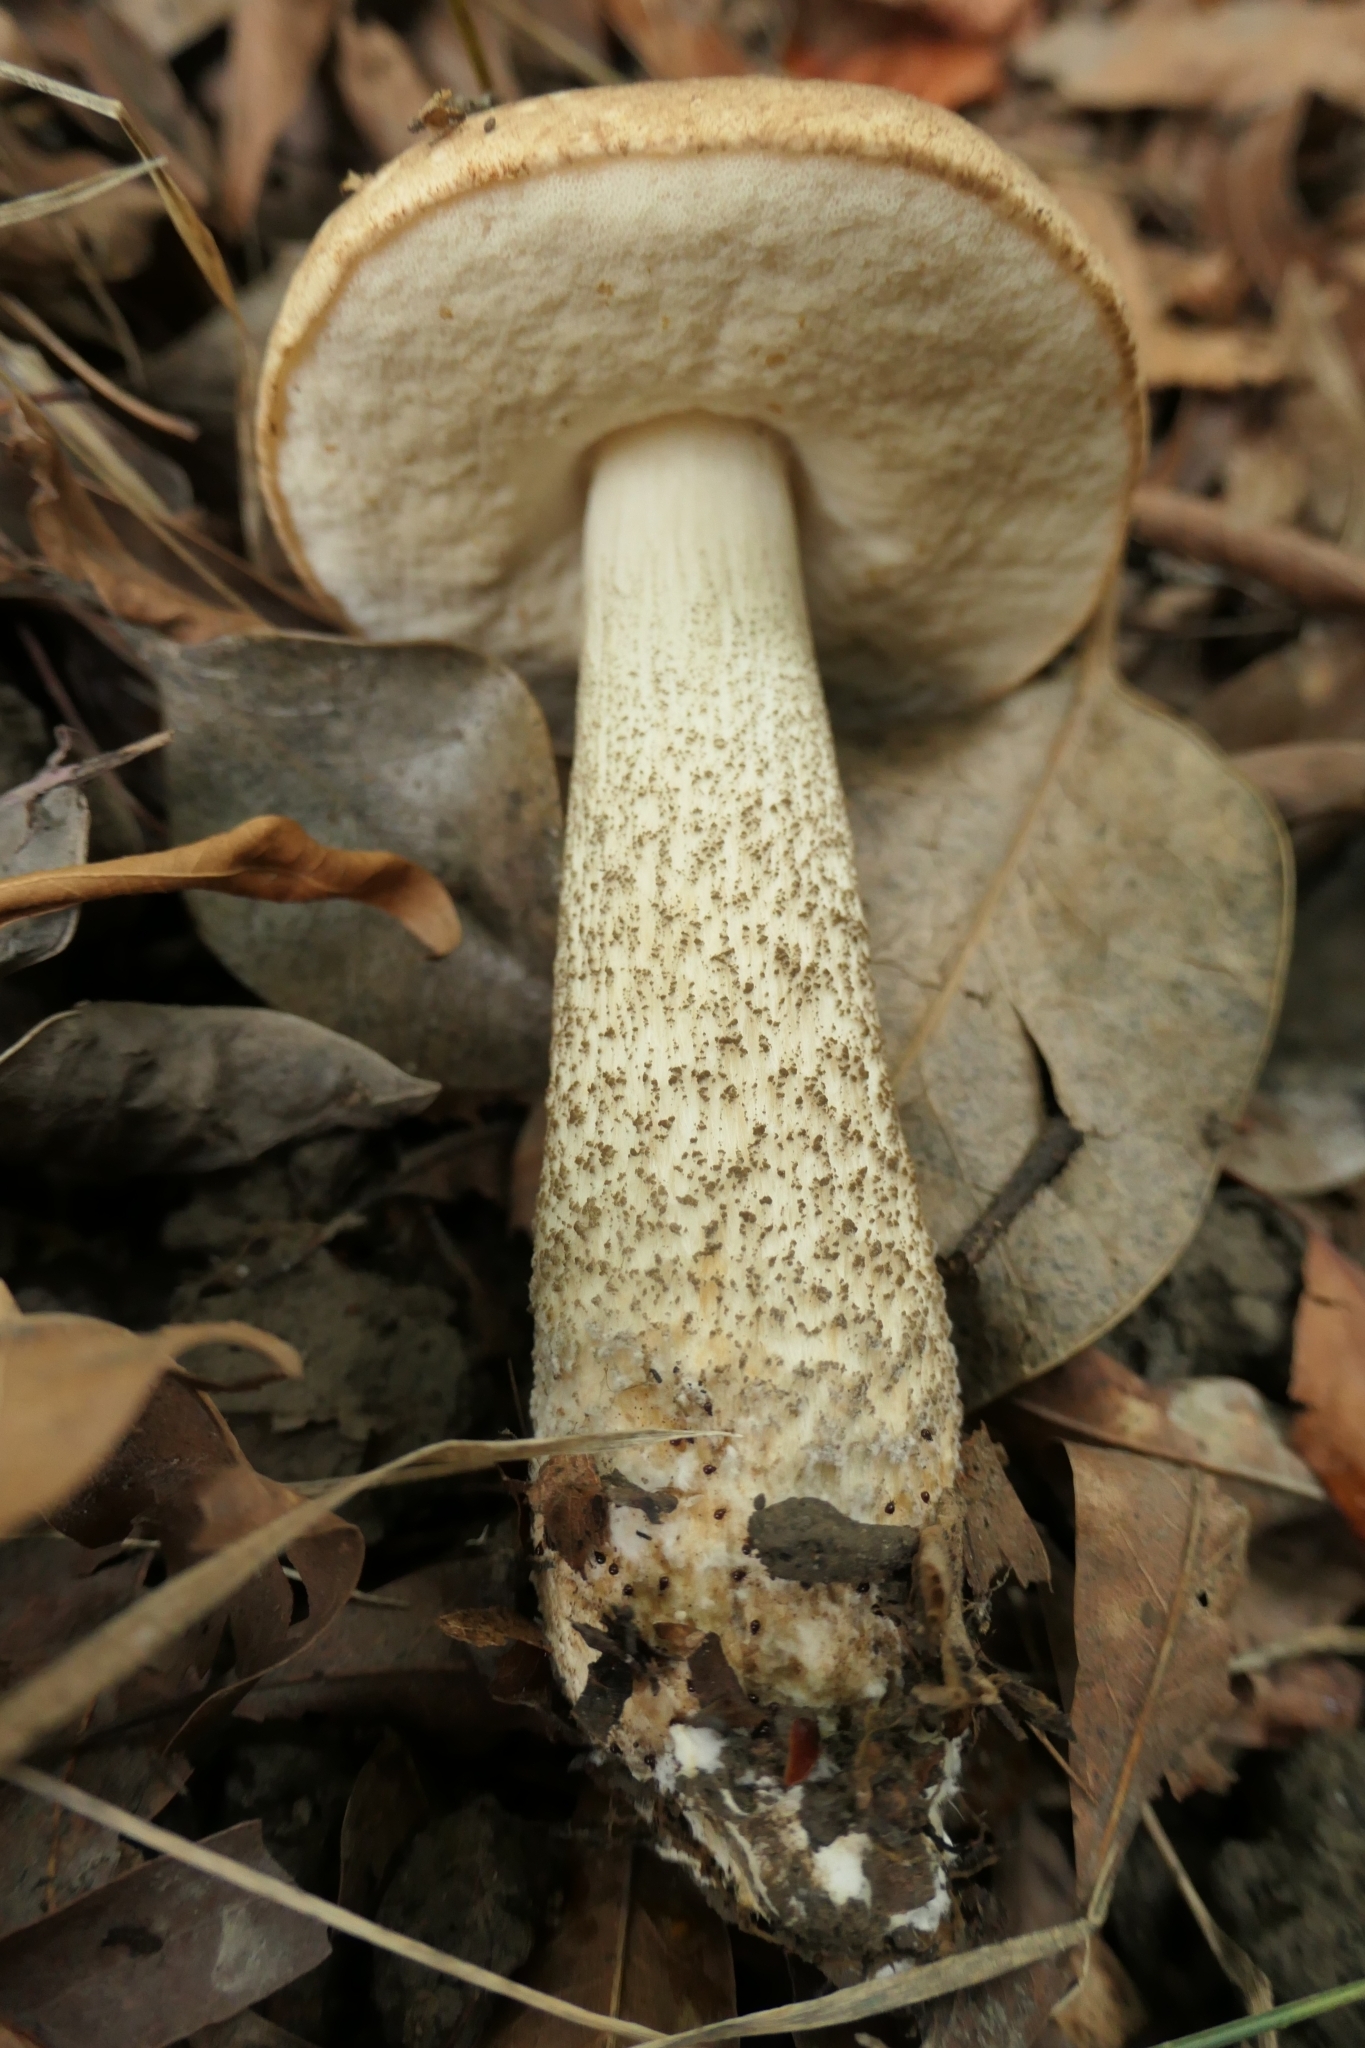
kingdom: Fungi
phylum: Basidiomycota
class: Agaricomycetes
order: Boletales
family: Boletaceae
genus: Leccinum
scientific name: Leccinum scabrum
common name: Blushing bolete
